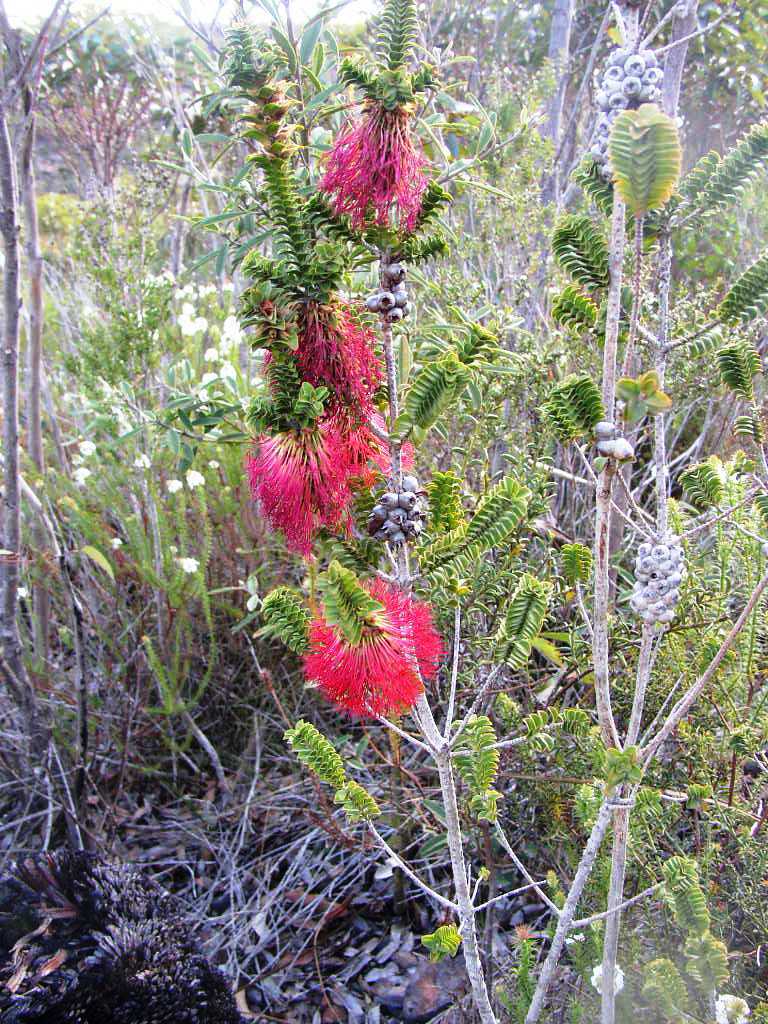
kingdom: Plantae
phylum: Tracheophyta
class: Magnoliopsida
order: Myrtales
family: Myrtaceae
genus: Melaleuca
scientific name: Melaleuca transversa
